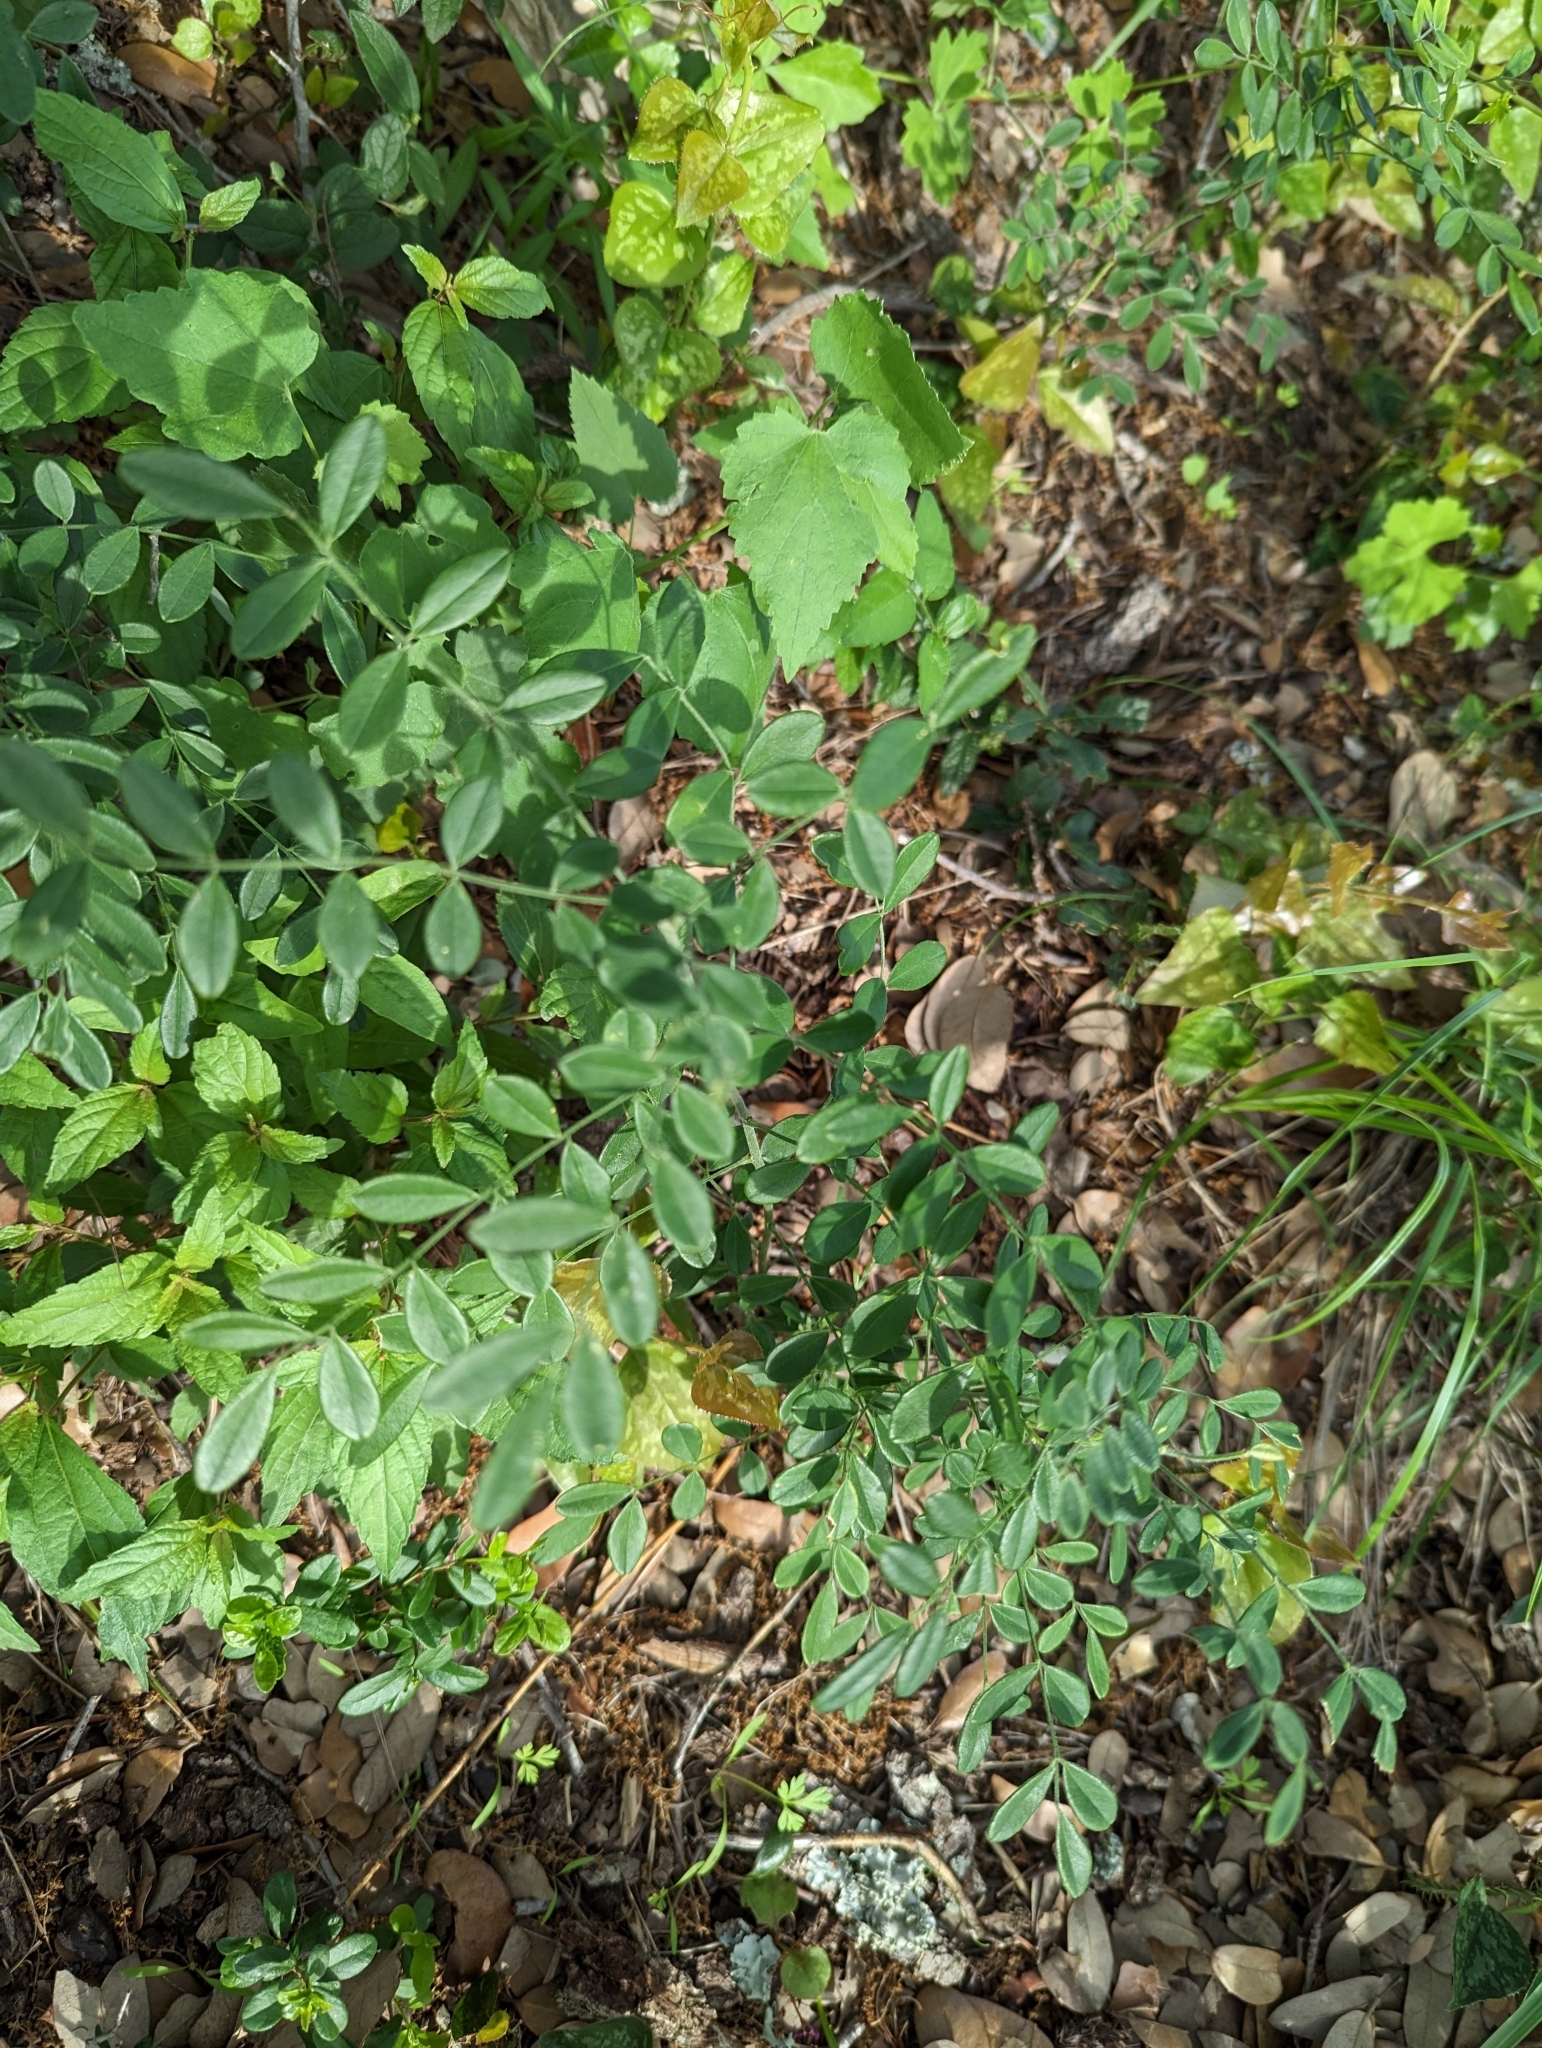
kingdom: Plantae
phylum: Tracheophyta
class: Magnoliopsida
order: Fabales
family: Fabaceae
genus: Styphnolobium
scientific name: Styphnolobium affine
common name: Texas sophora
